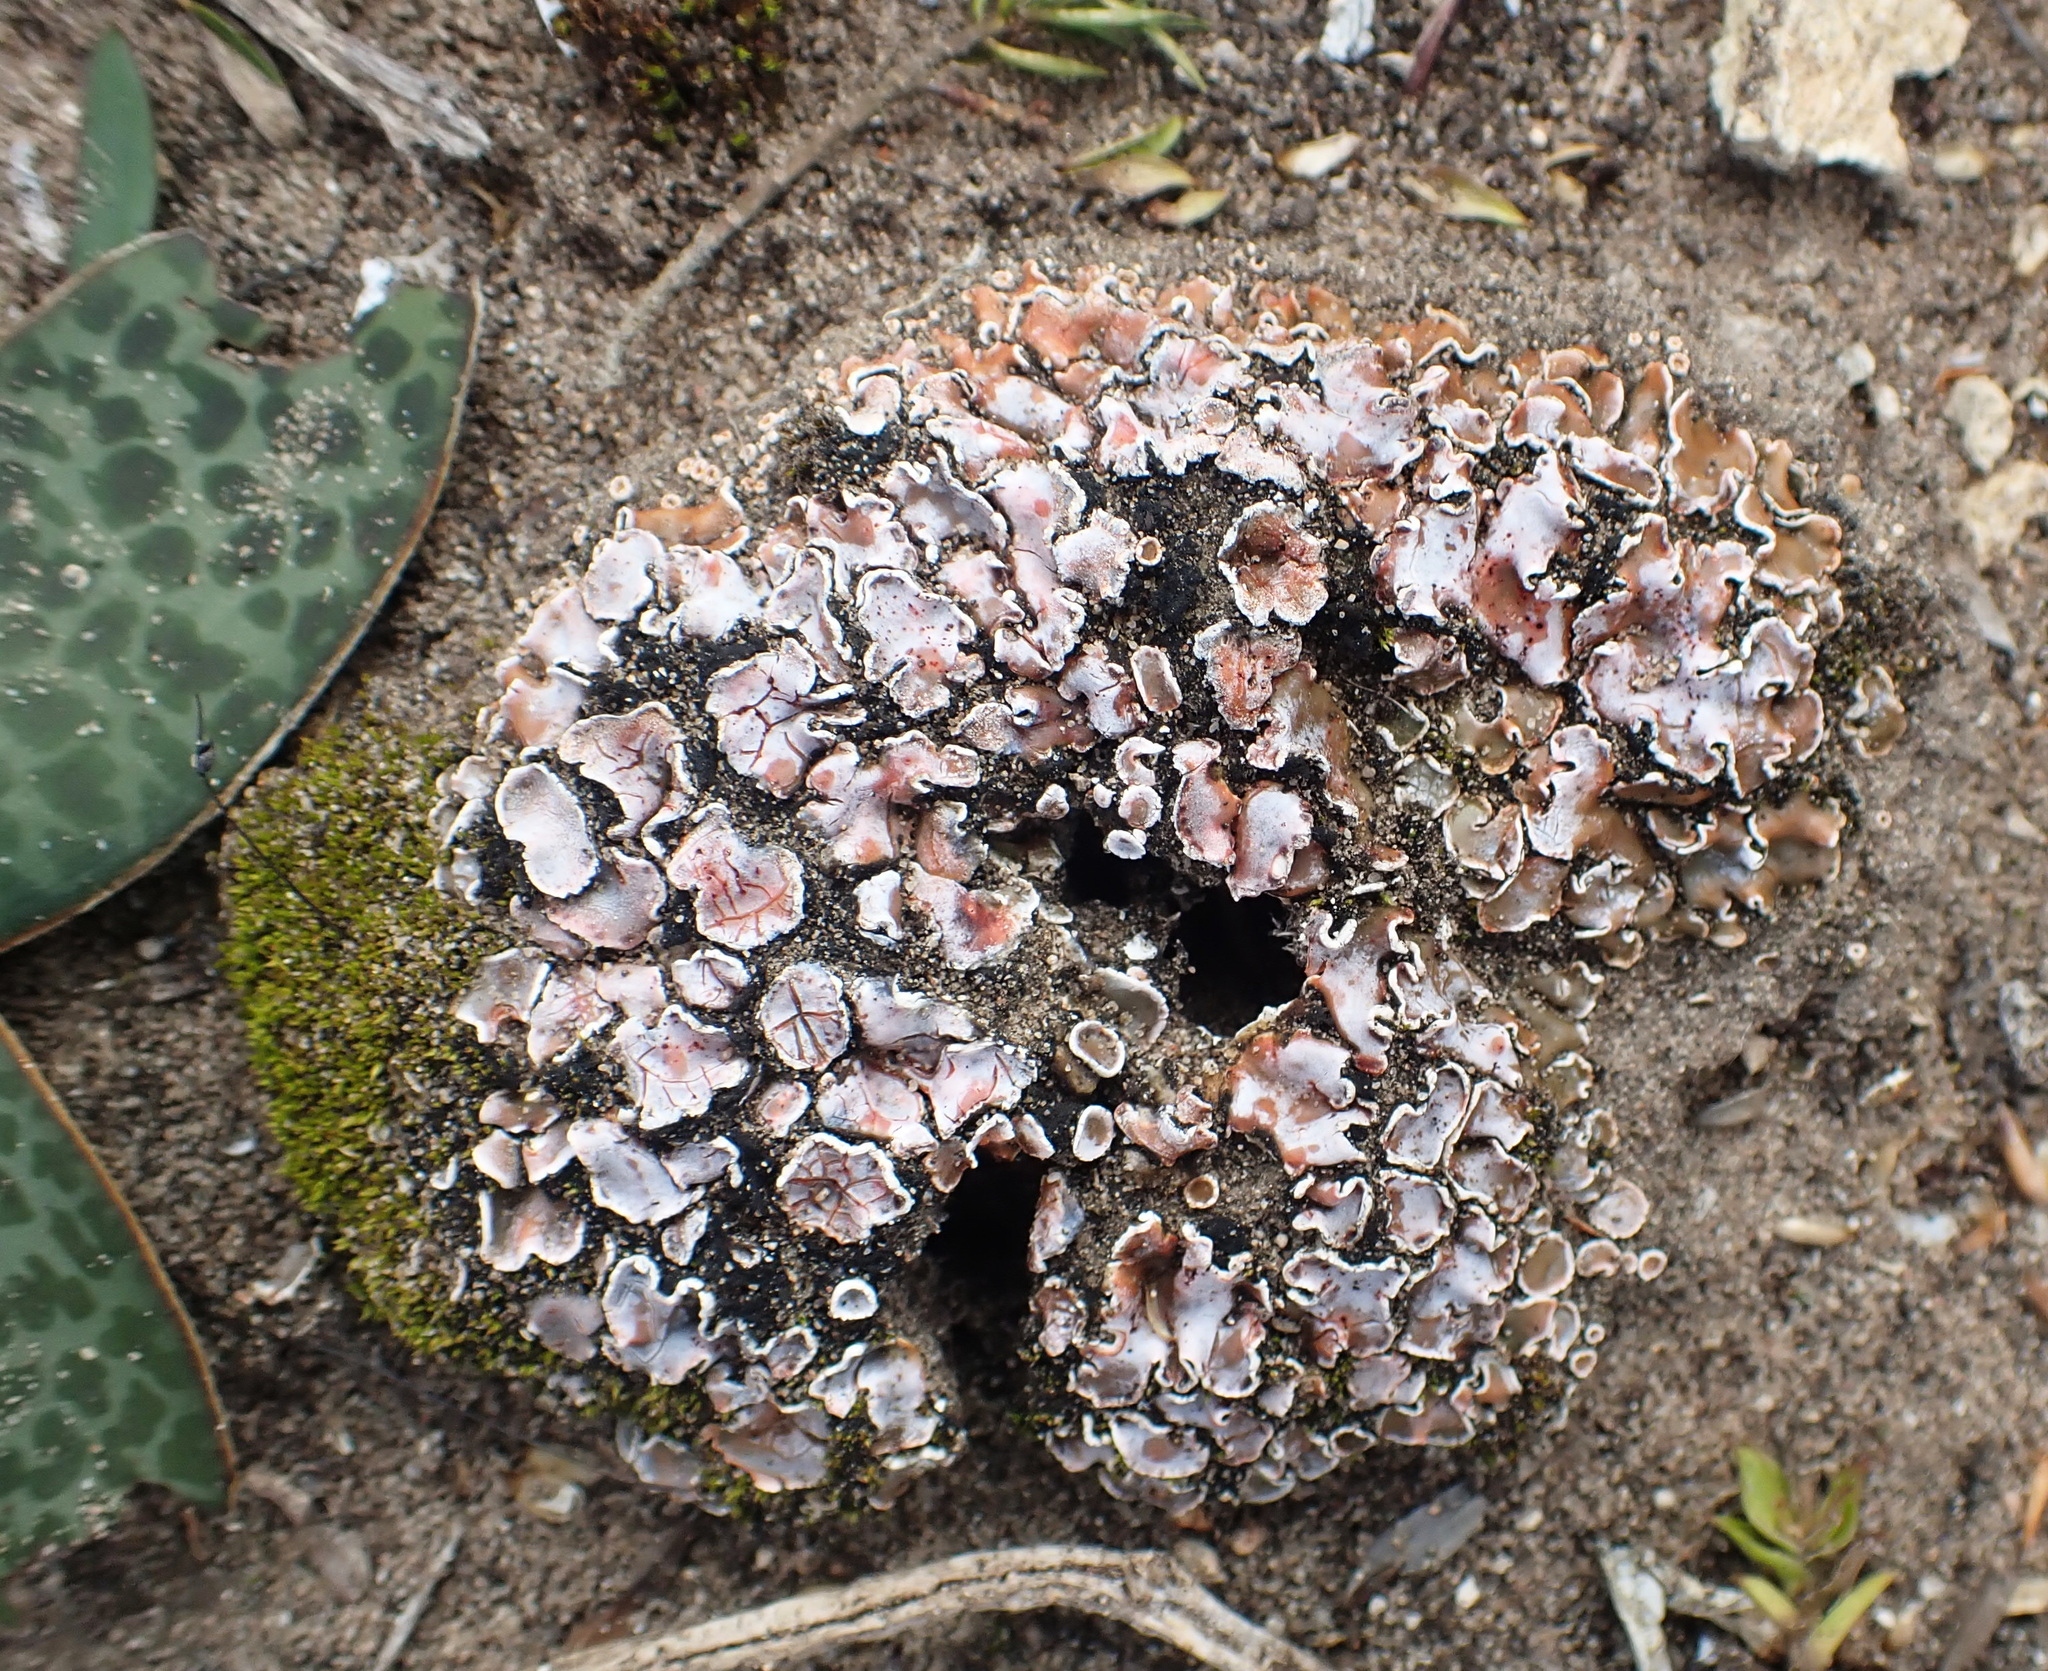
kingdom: Fungi
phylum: Ascomycota
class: Lecanoromycetes
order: Lecanorales
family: Psoraceae
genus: Psora
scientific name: Psora crenata
